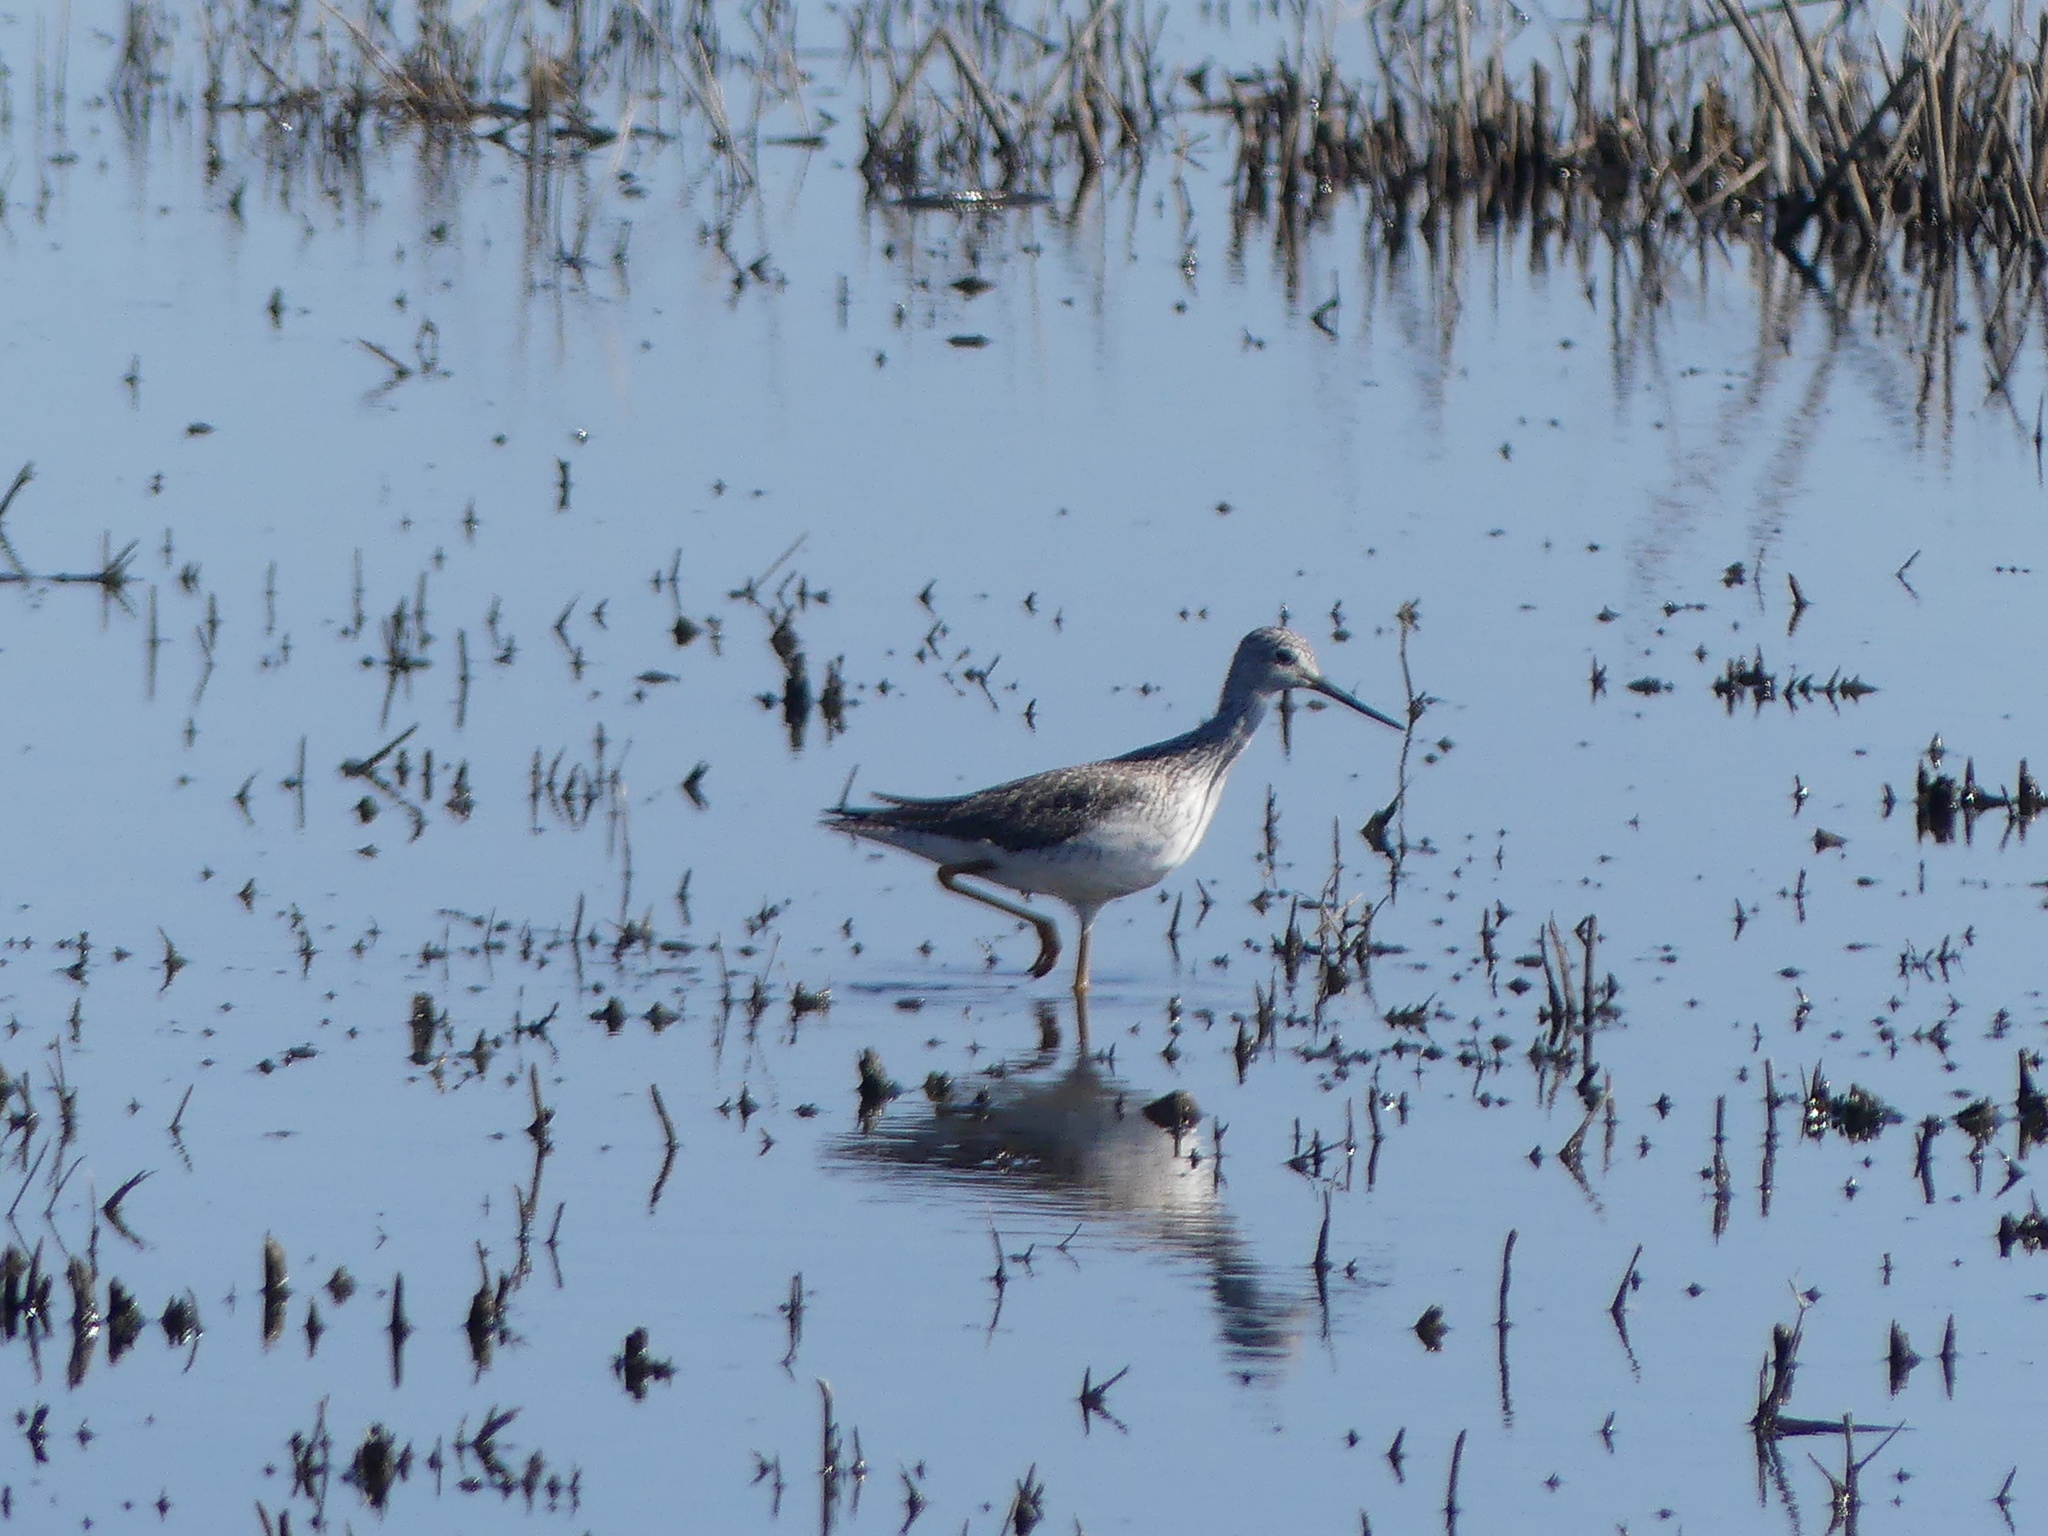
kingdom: Animalia
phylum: Chordata
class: Aves
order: Charadriiformes
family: Scolopacidae
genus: Tringa
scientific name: Tringa melanoleuca
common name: Greater yellowlegs
